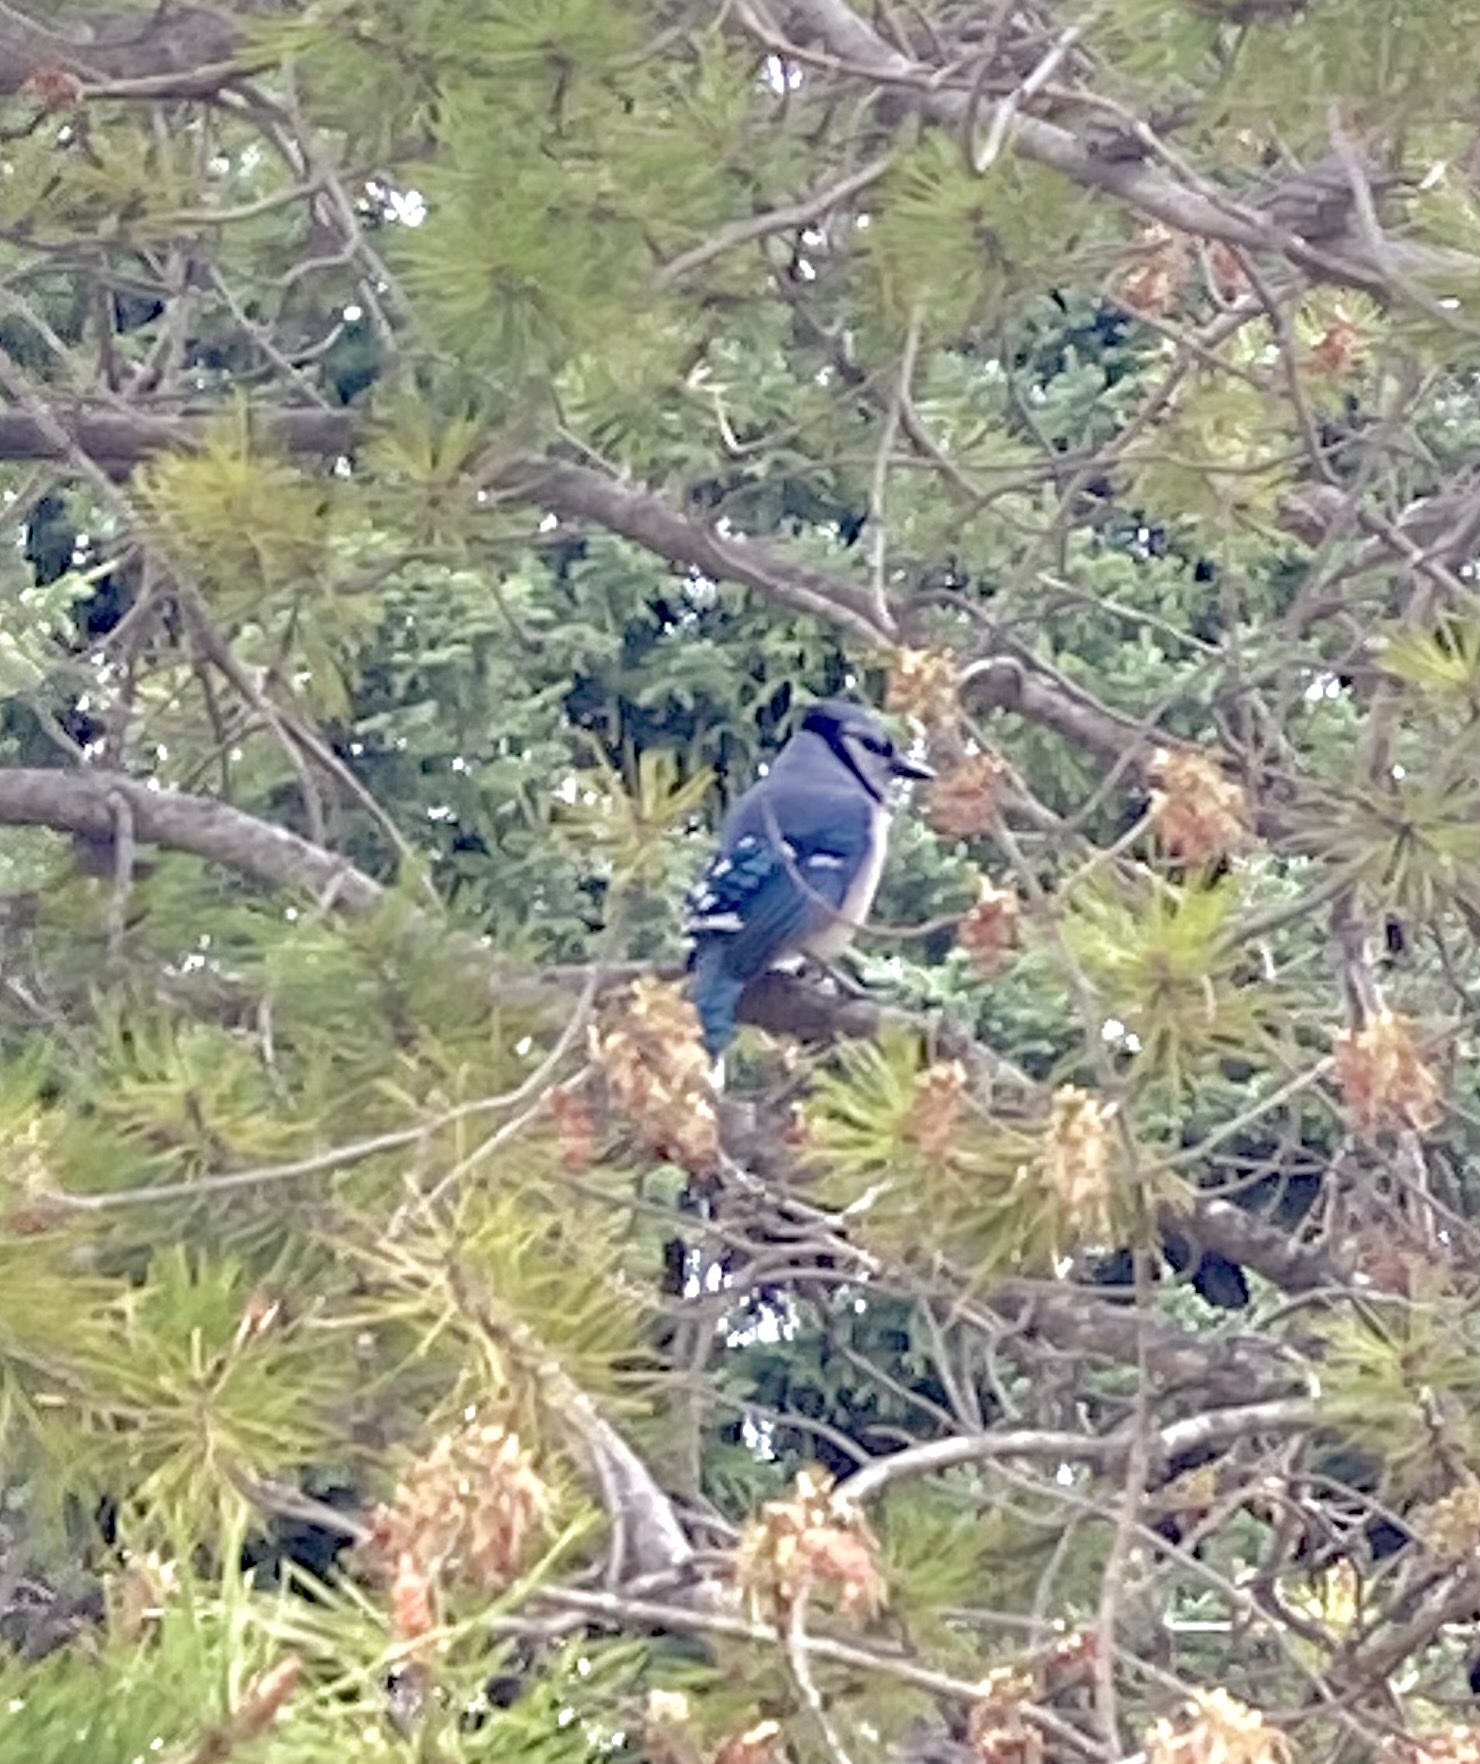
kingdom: Animalia
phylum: Chordata
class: Aves
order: Passeriformes
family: Corvidae
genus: Cyanocitta
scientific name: Cyanocitta cristata
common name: Blue jay
